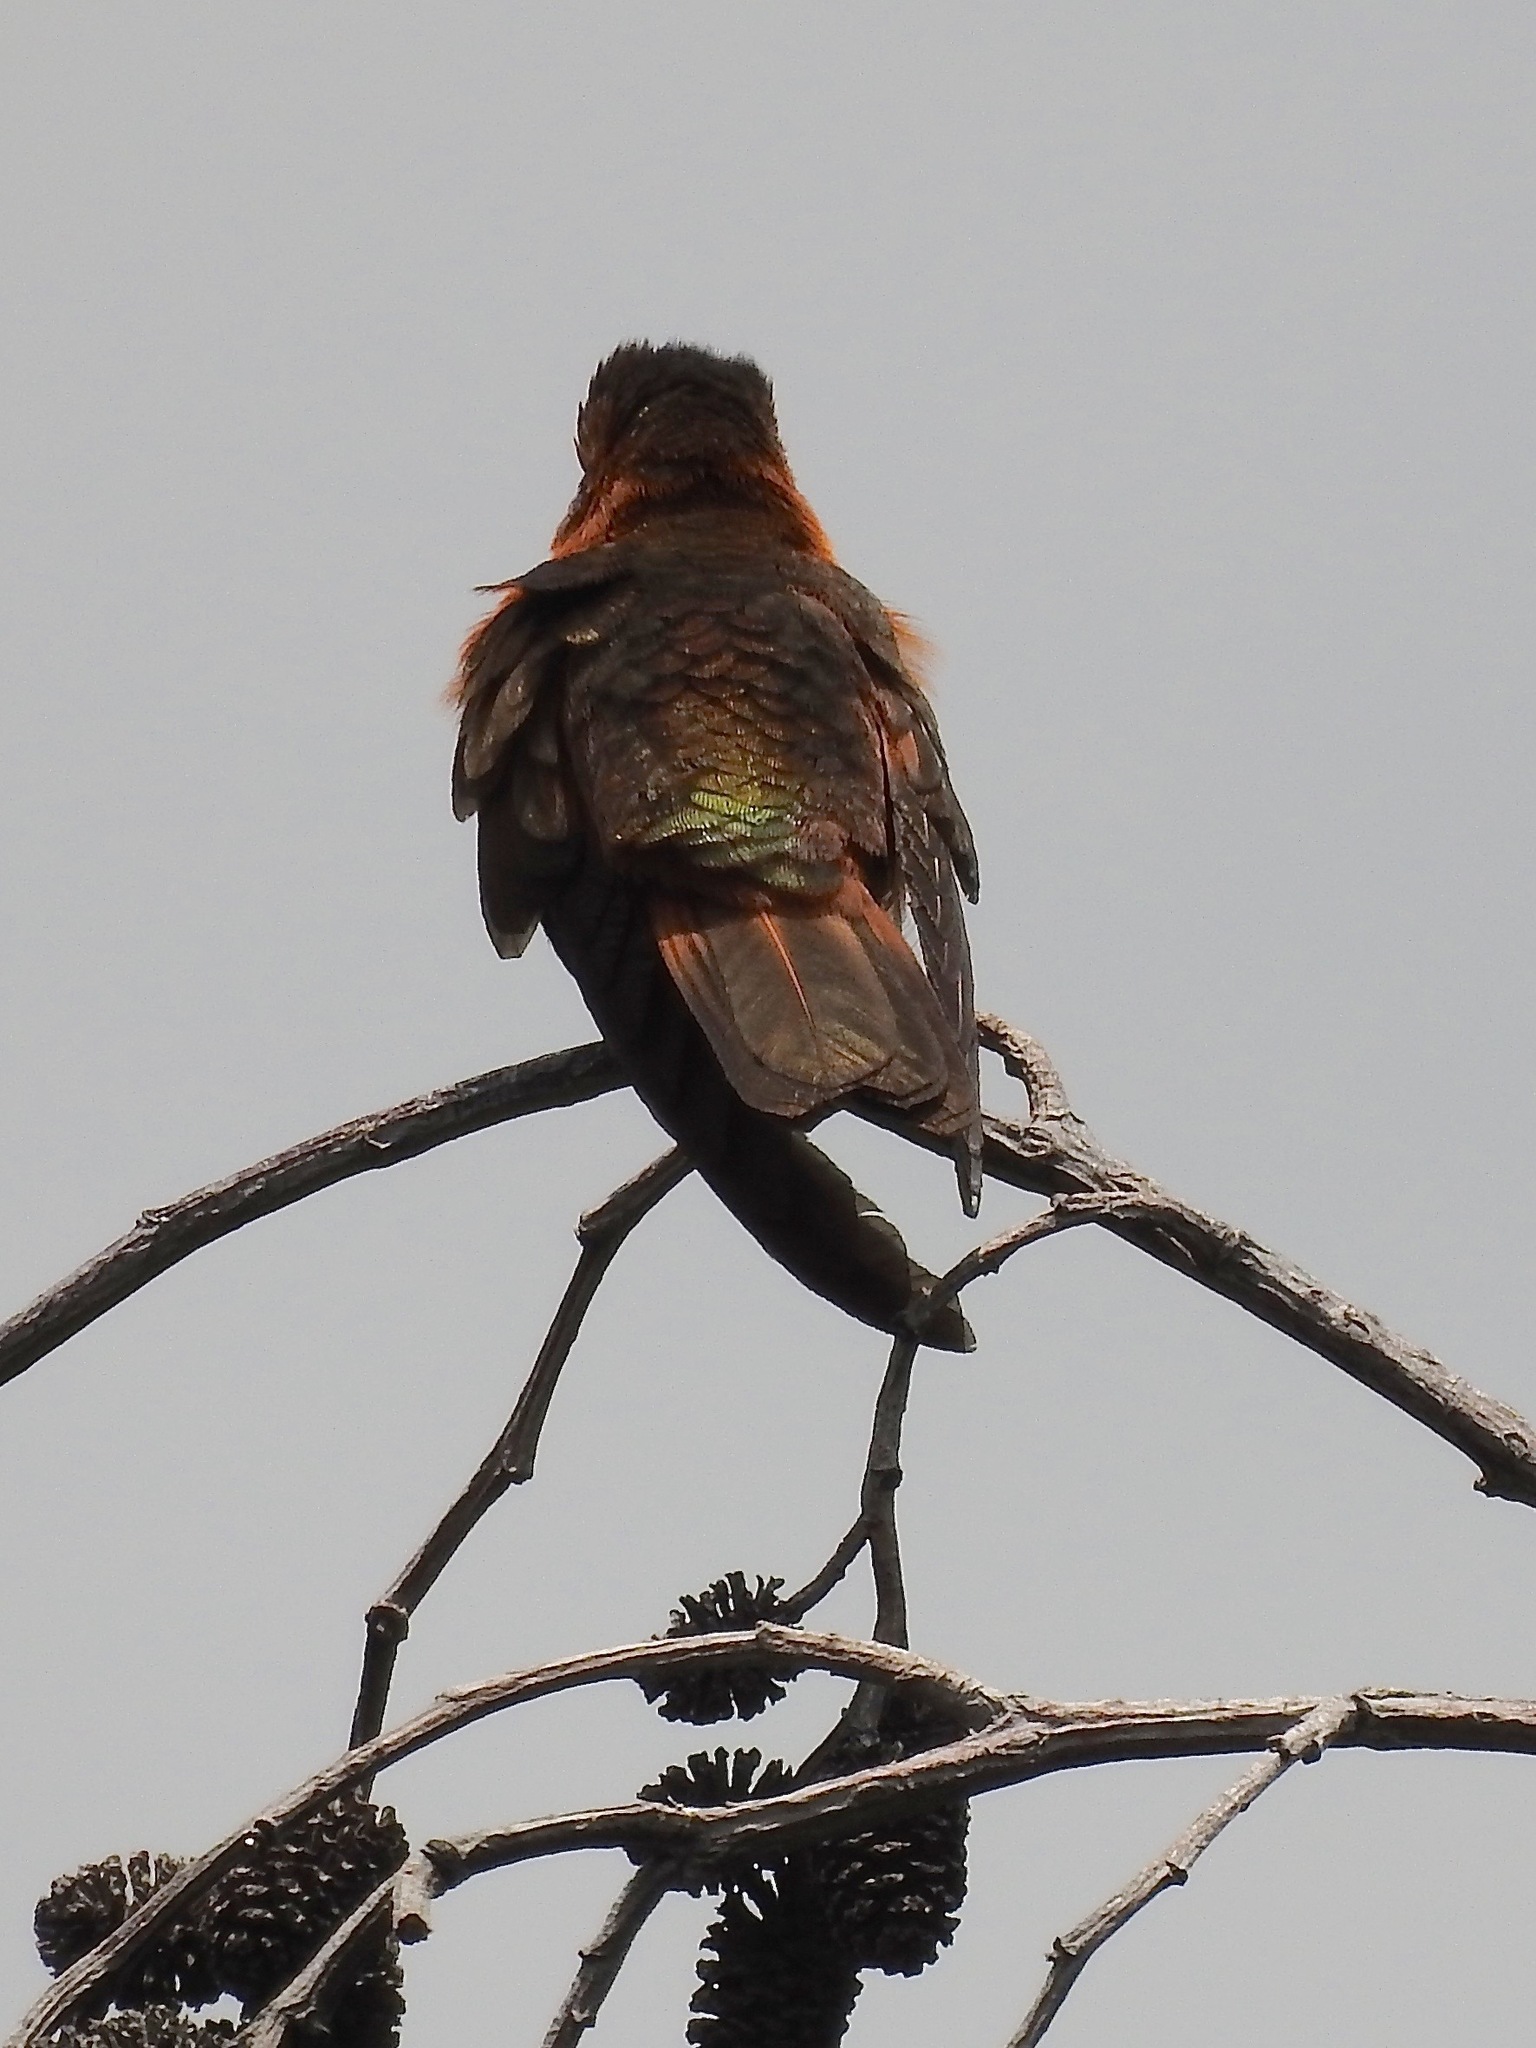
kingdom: Animalia
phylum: Chordata
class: Aves
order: Apodiformes
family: Trochilidae
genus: Aglaeactis
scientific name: Aglaeactis cupripennis
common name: Shining sunbeam
